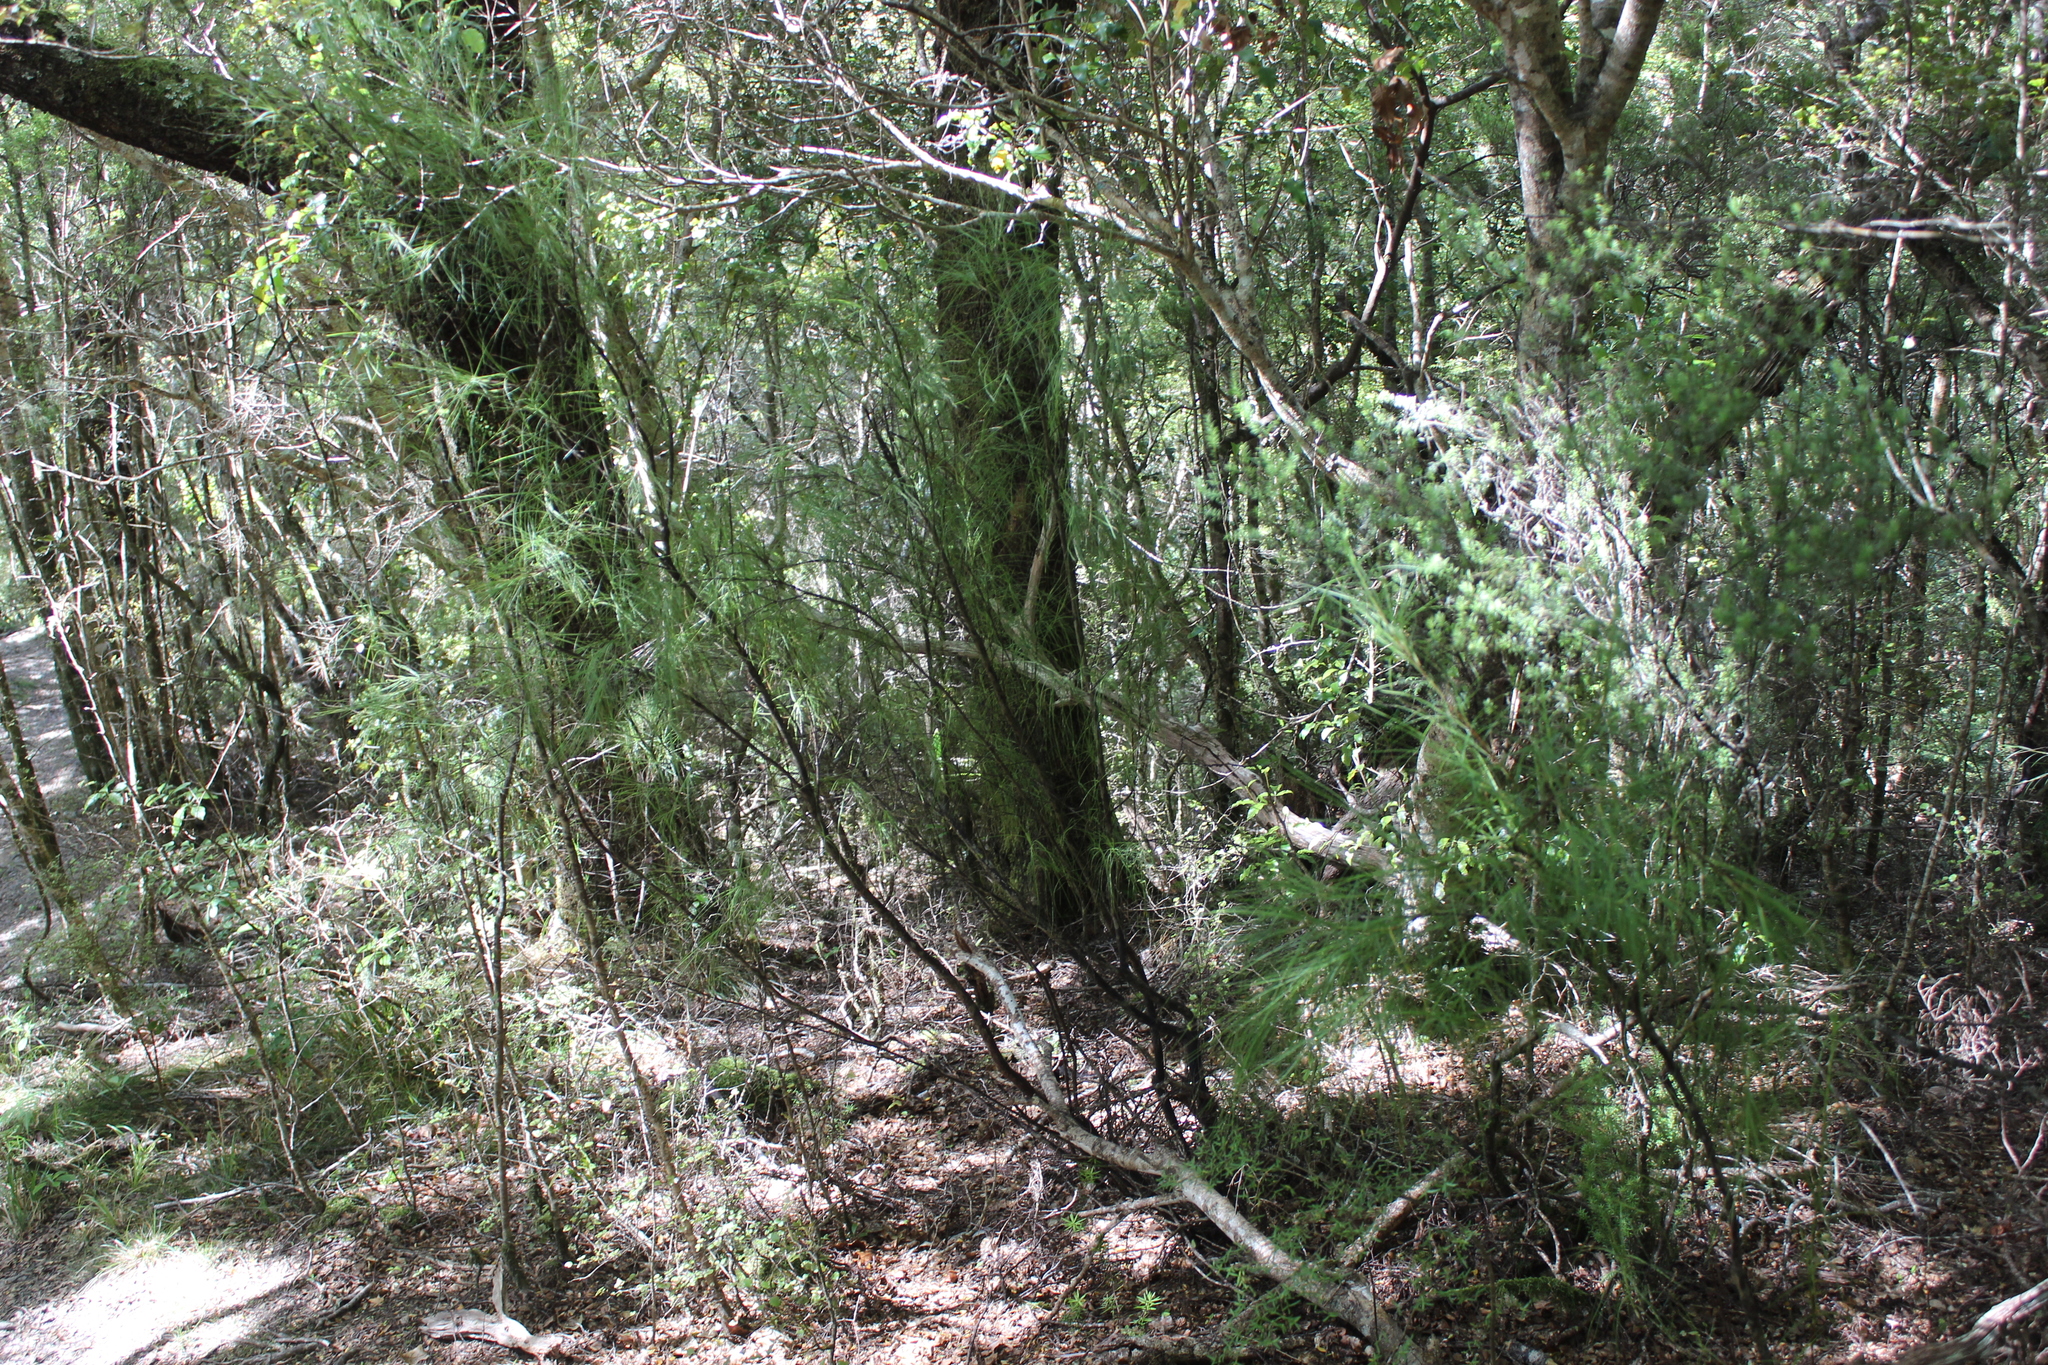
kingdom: Plantae
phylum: Tracheophyta
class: Magnoliopsida
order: Ericales
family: Ericaceae
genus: Dracophyllum
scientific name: Dracophyllum filifolium
